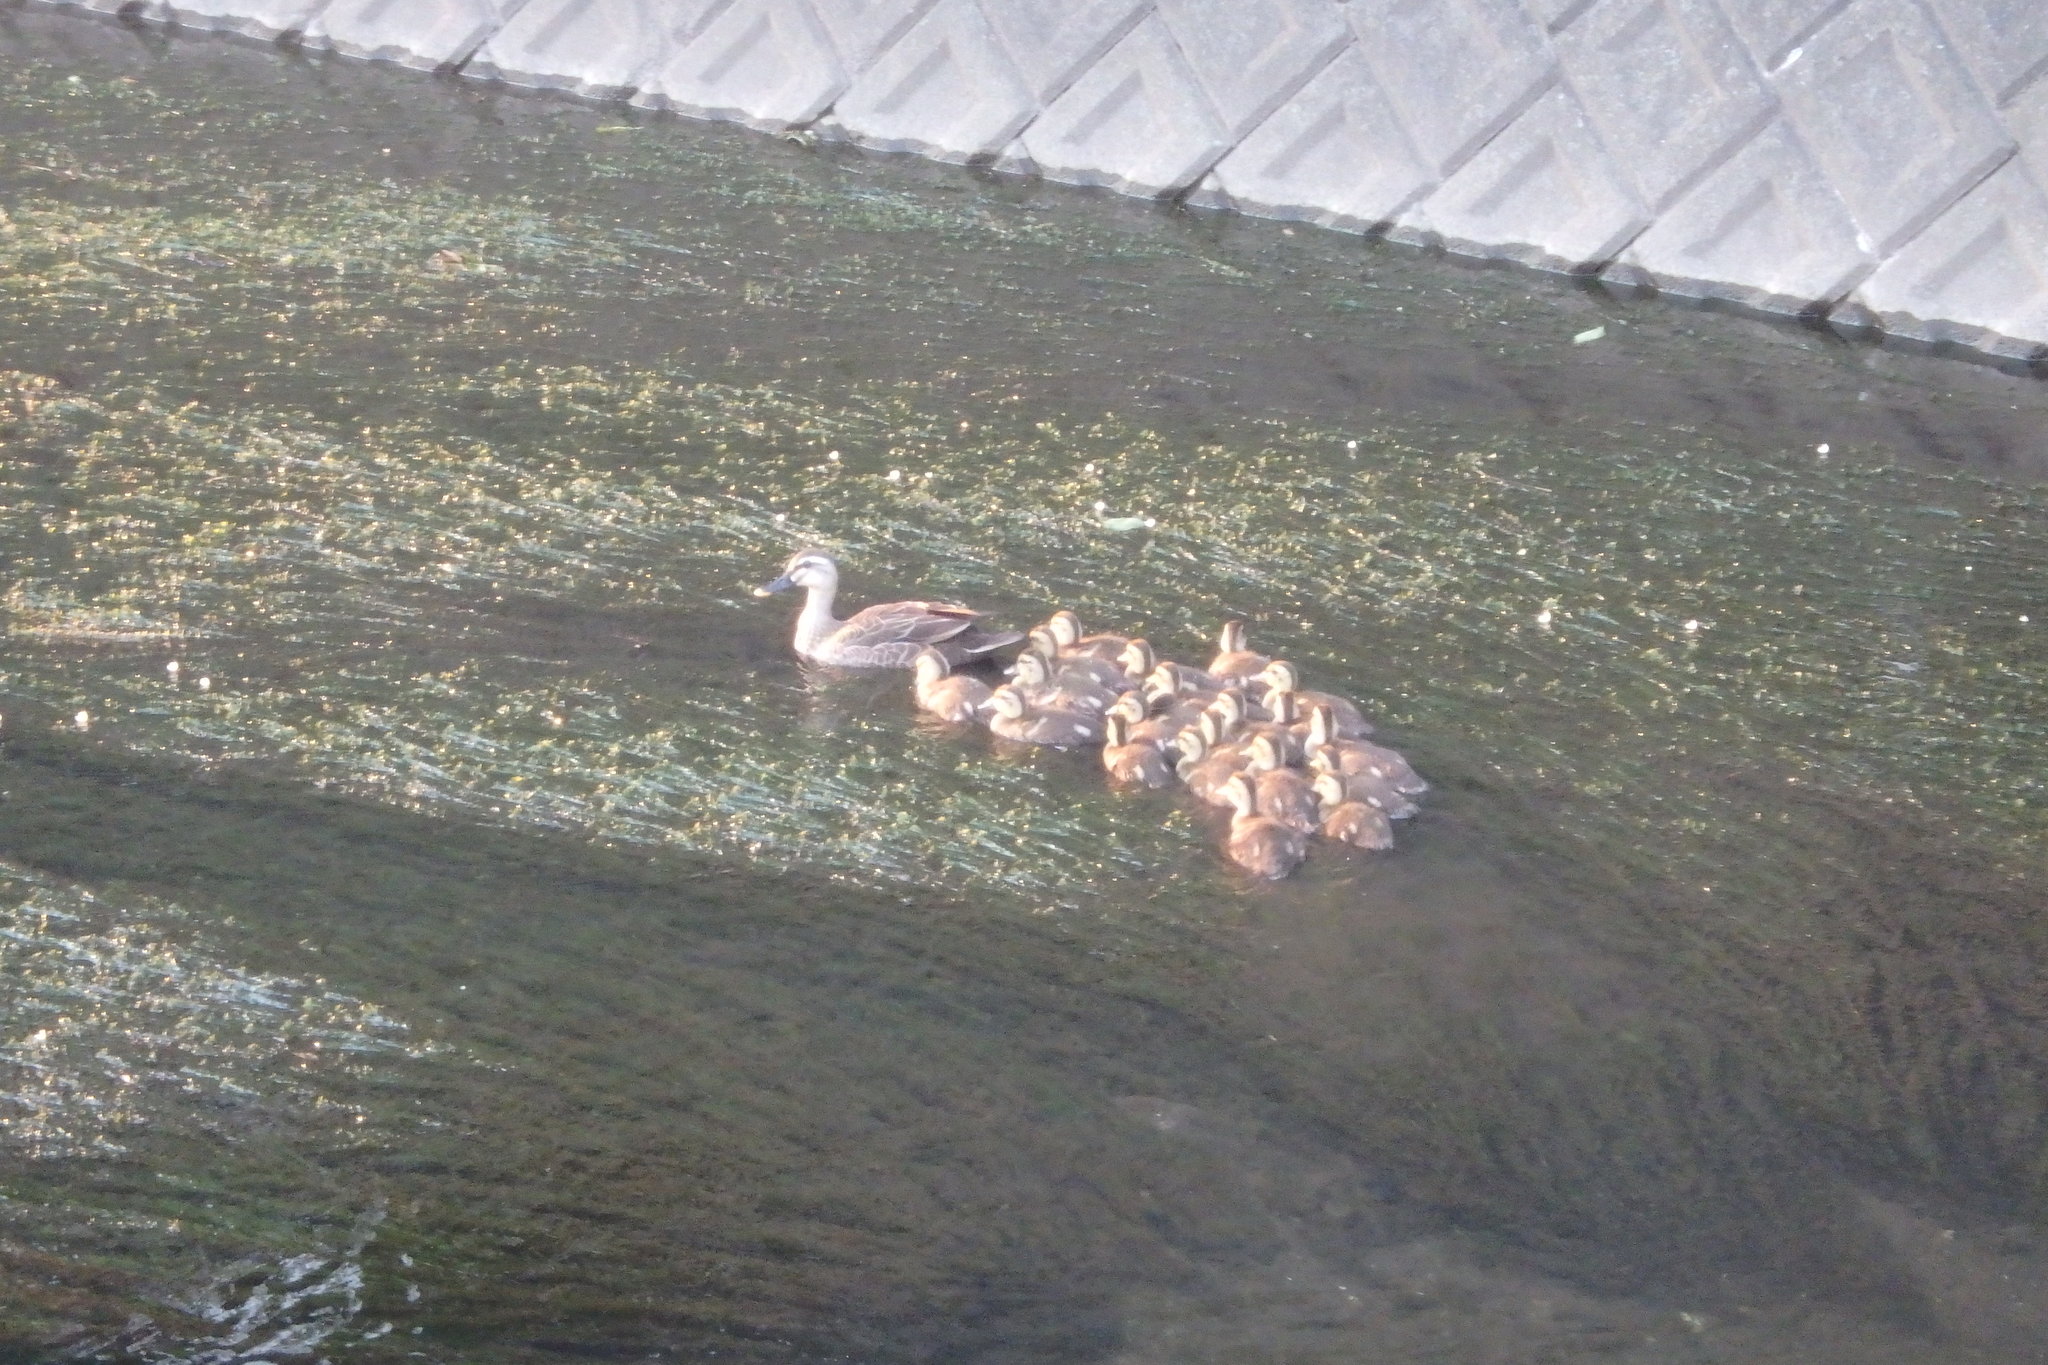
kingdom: Animalia
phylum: Chordata
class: Aves
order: Anseriformes
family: Anatidae
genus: Anas
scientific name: Anas zonorhyncha
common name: Eastern spot-billed duck
